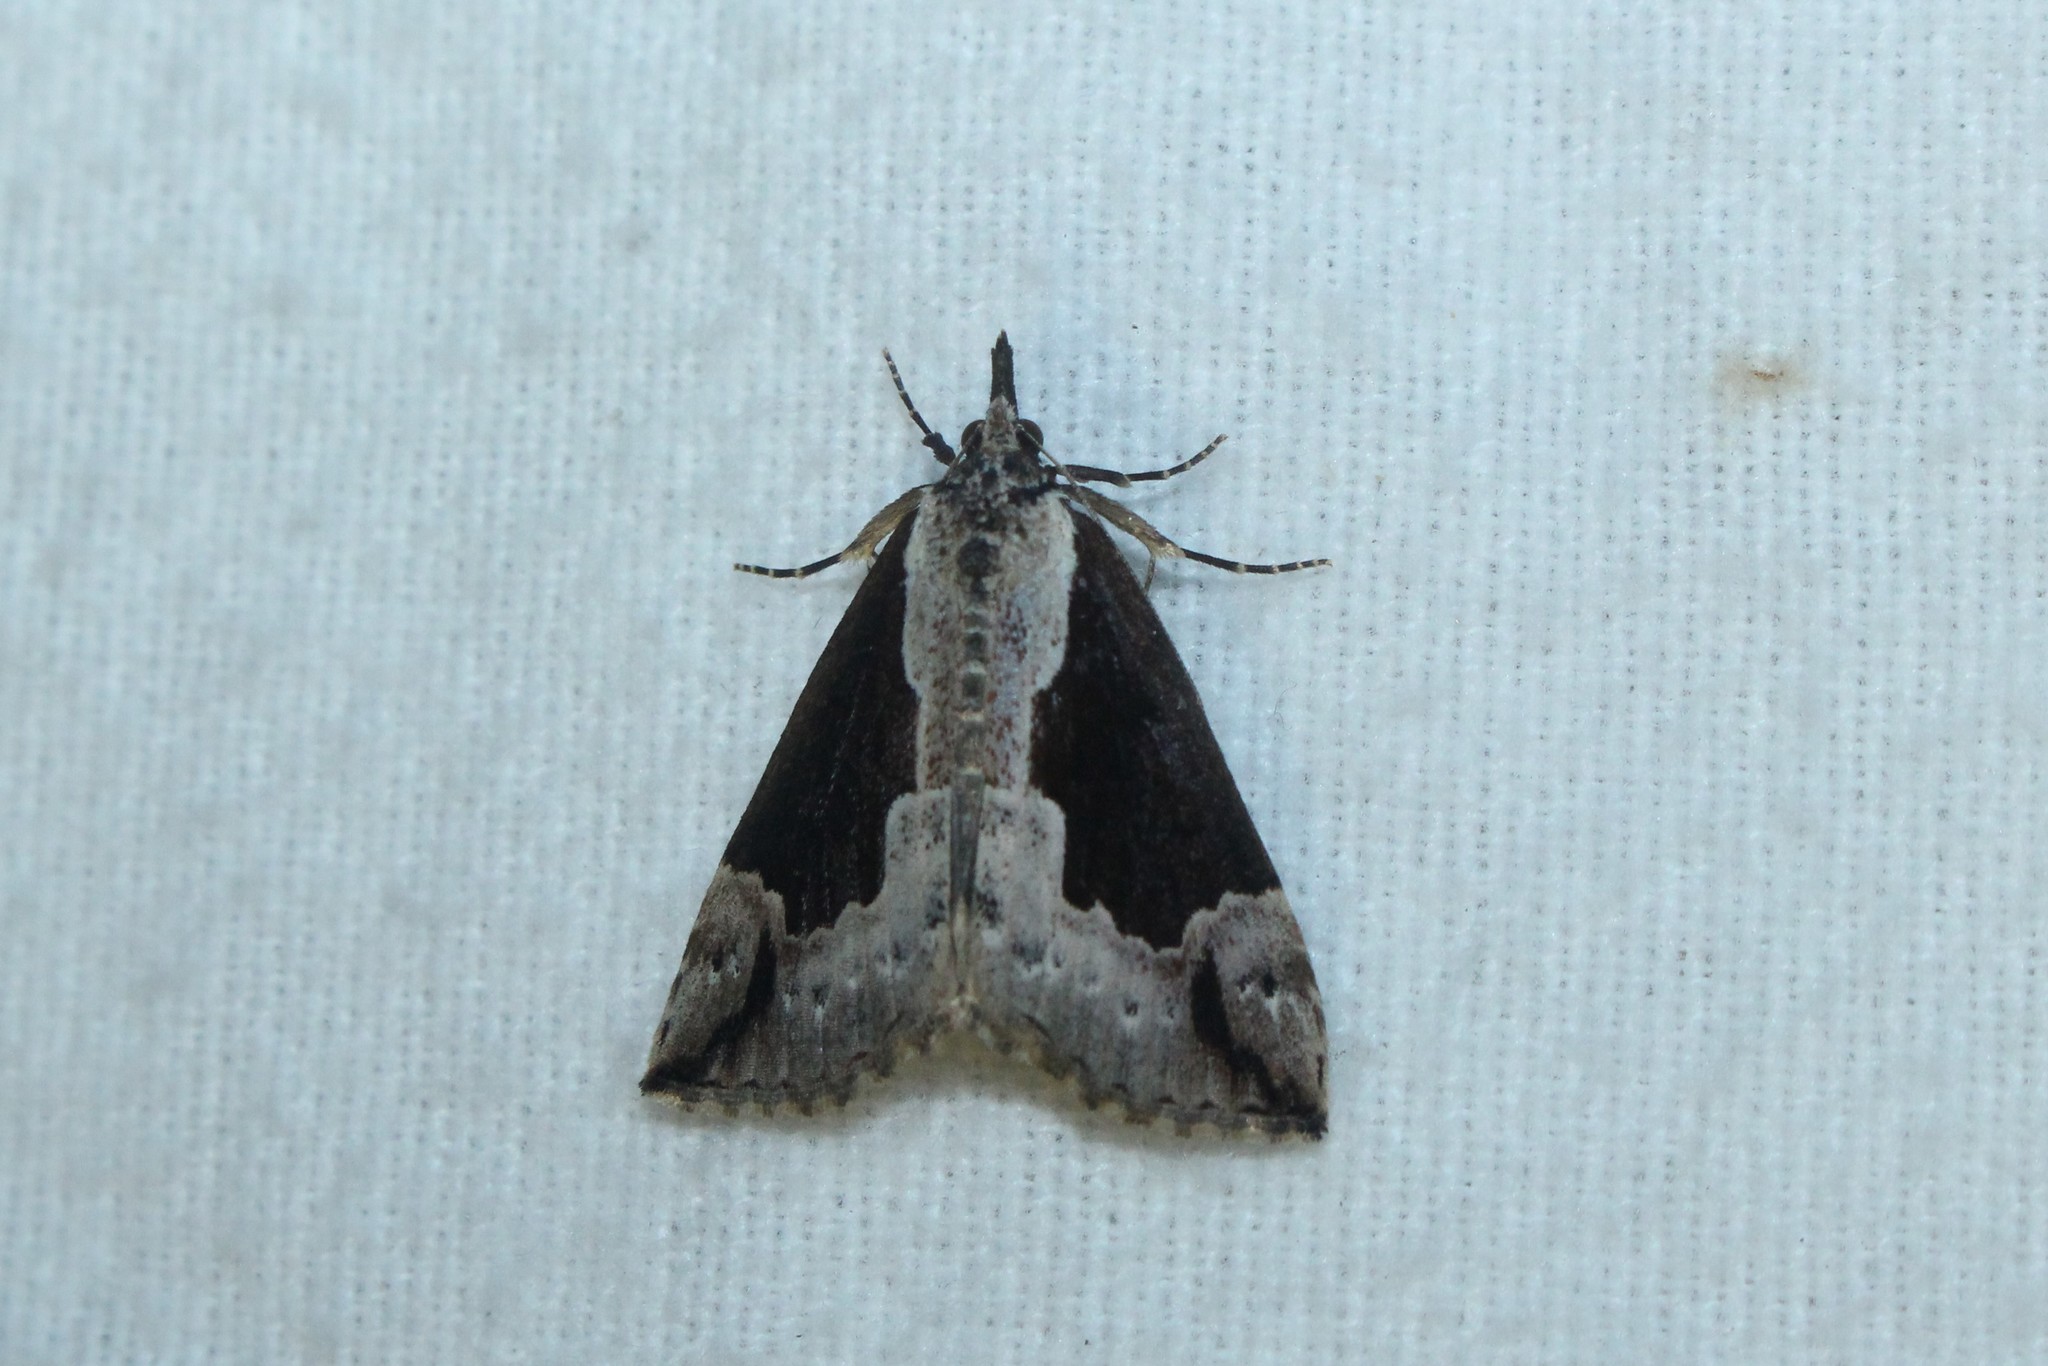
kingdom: Animalia
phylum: Arthropoda
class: Insecta
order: Lepidoptera
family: Erebidae
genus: Hypena
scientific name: Hypena baltimoralis
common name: Baltimore snout
